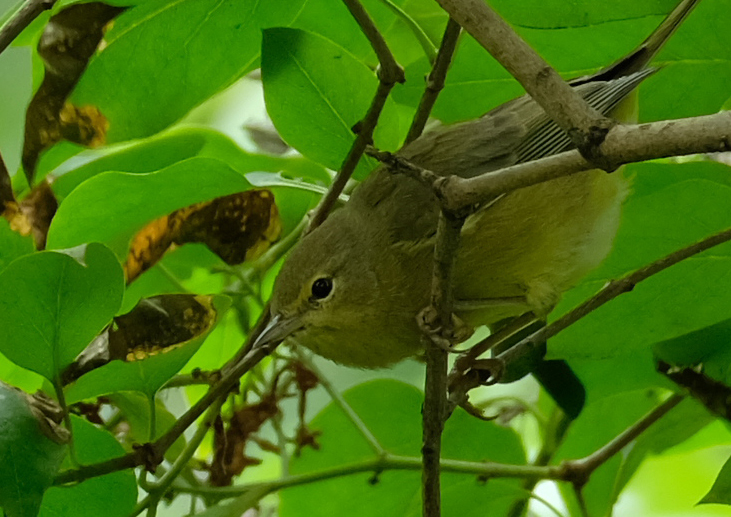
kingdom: Animalia
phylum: Chordata
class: Aves
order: Passeriformes
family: Parulidae
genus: Leiothlypis
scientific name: Leiothlypis celata
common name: Orange-crowned warbler
